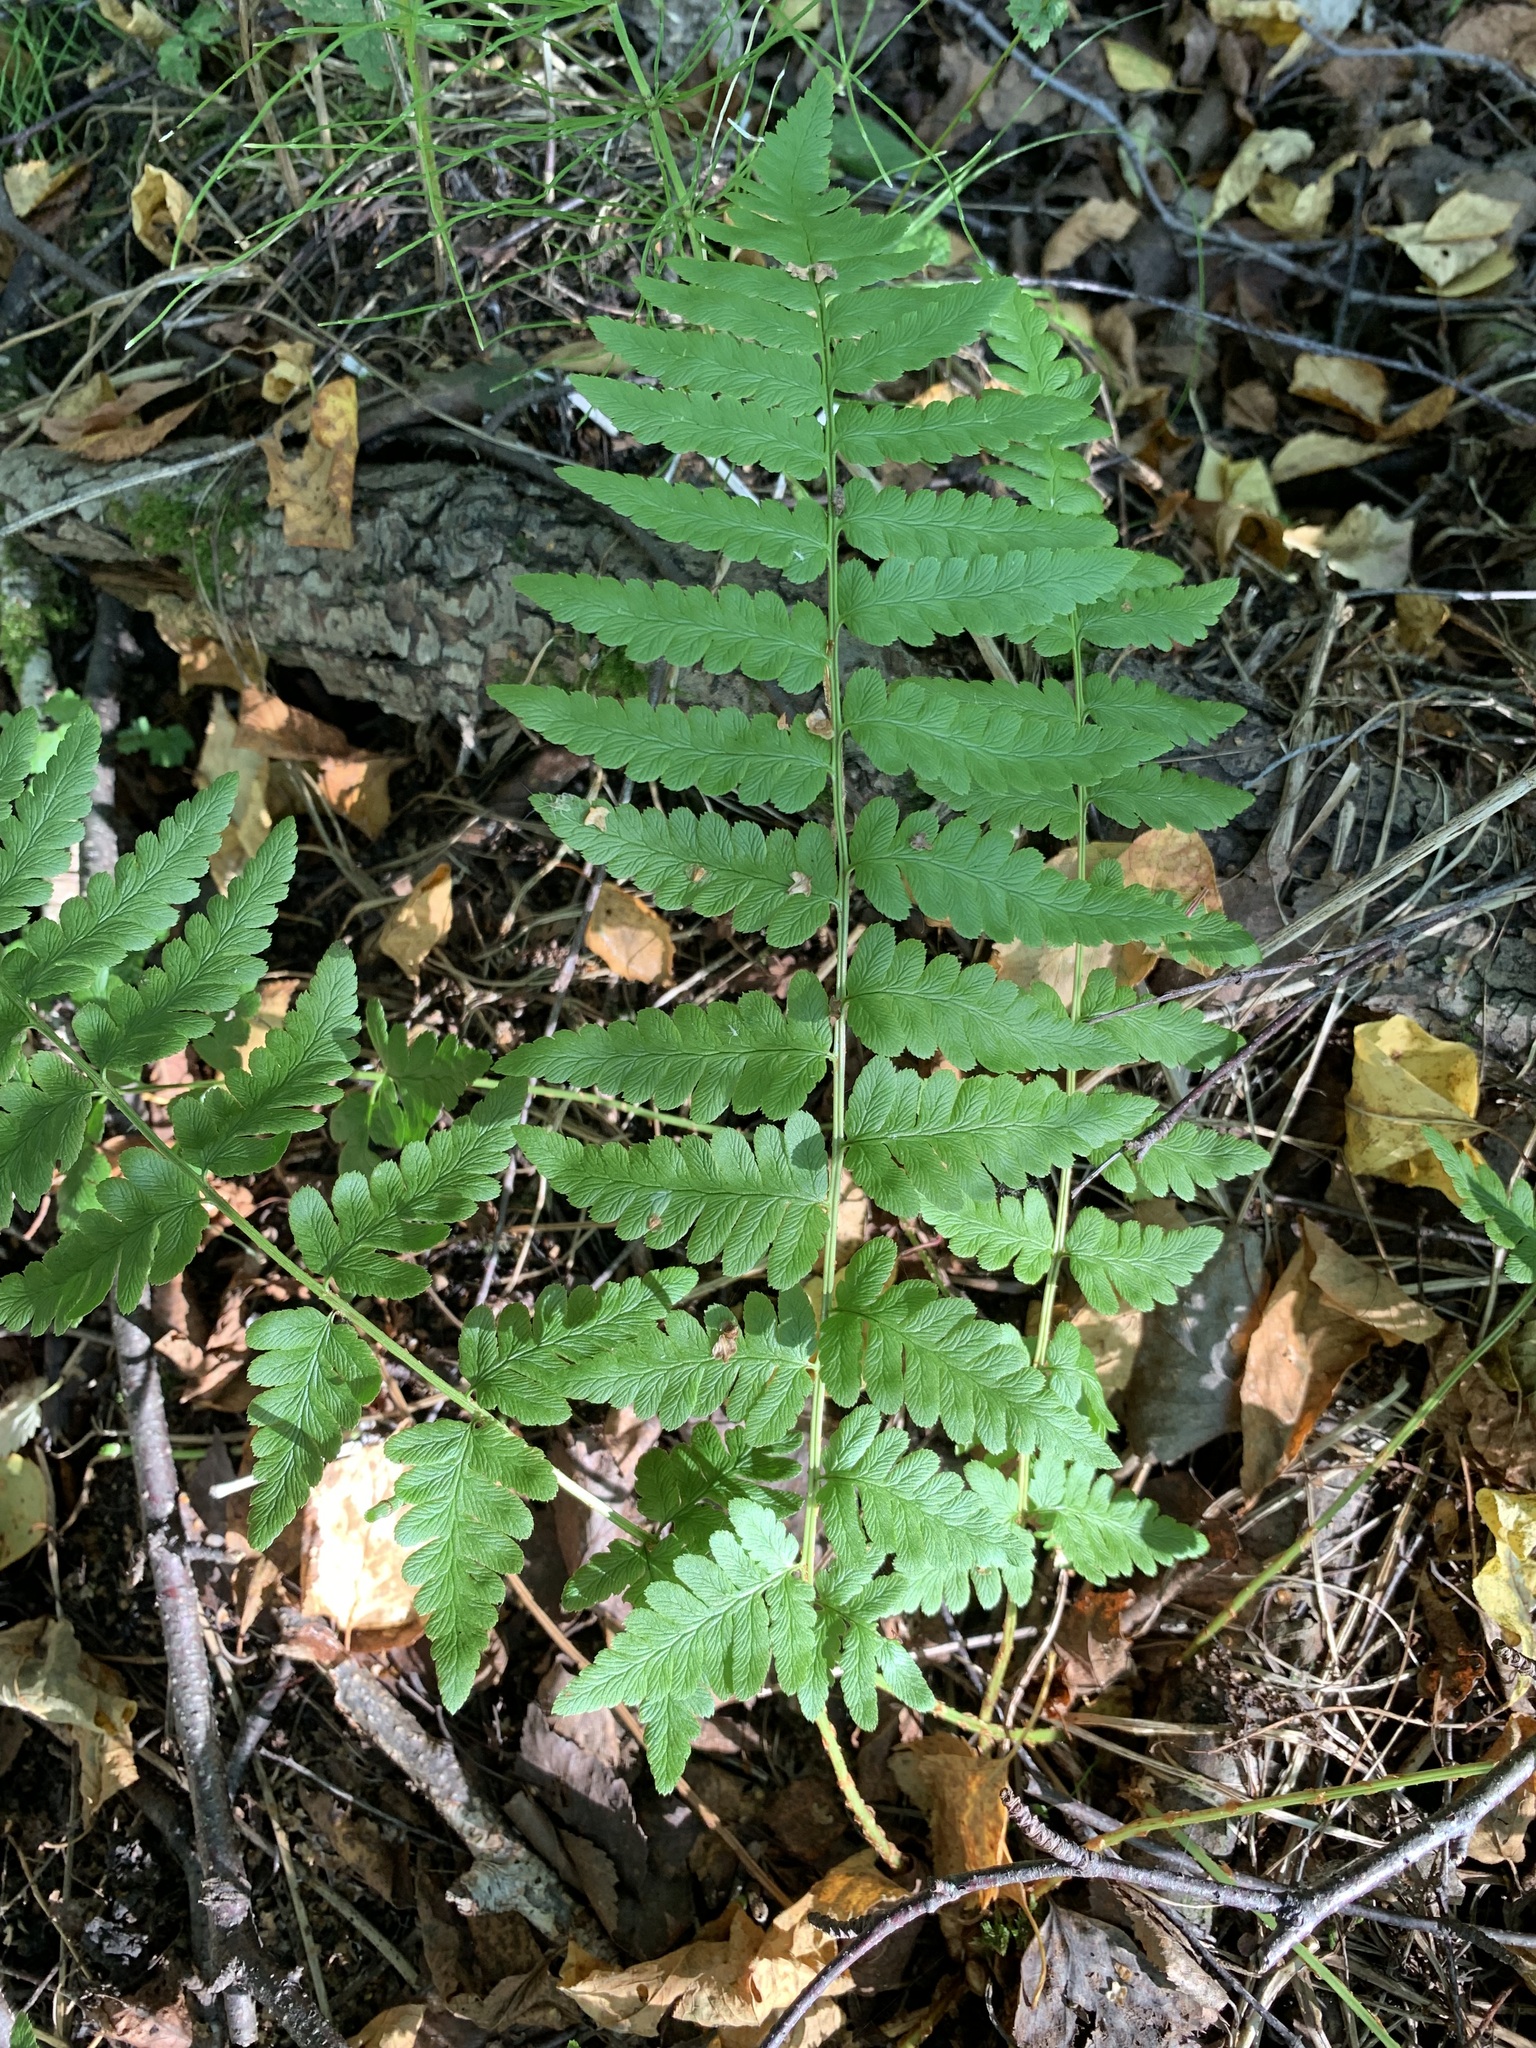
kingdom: Plantae
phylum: Tracheophyta
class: Polypodiopsida
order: Polypodiales
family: Dryopteridaceae
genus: Dryopteris
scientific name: Dryopteris cristata
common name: Crested wood fern
